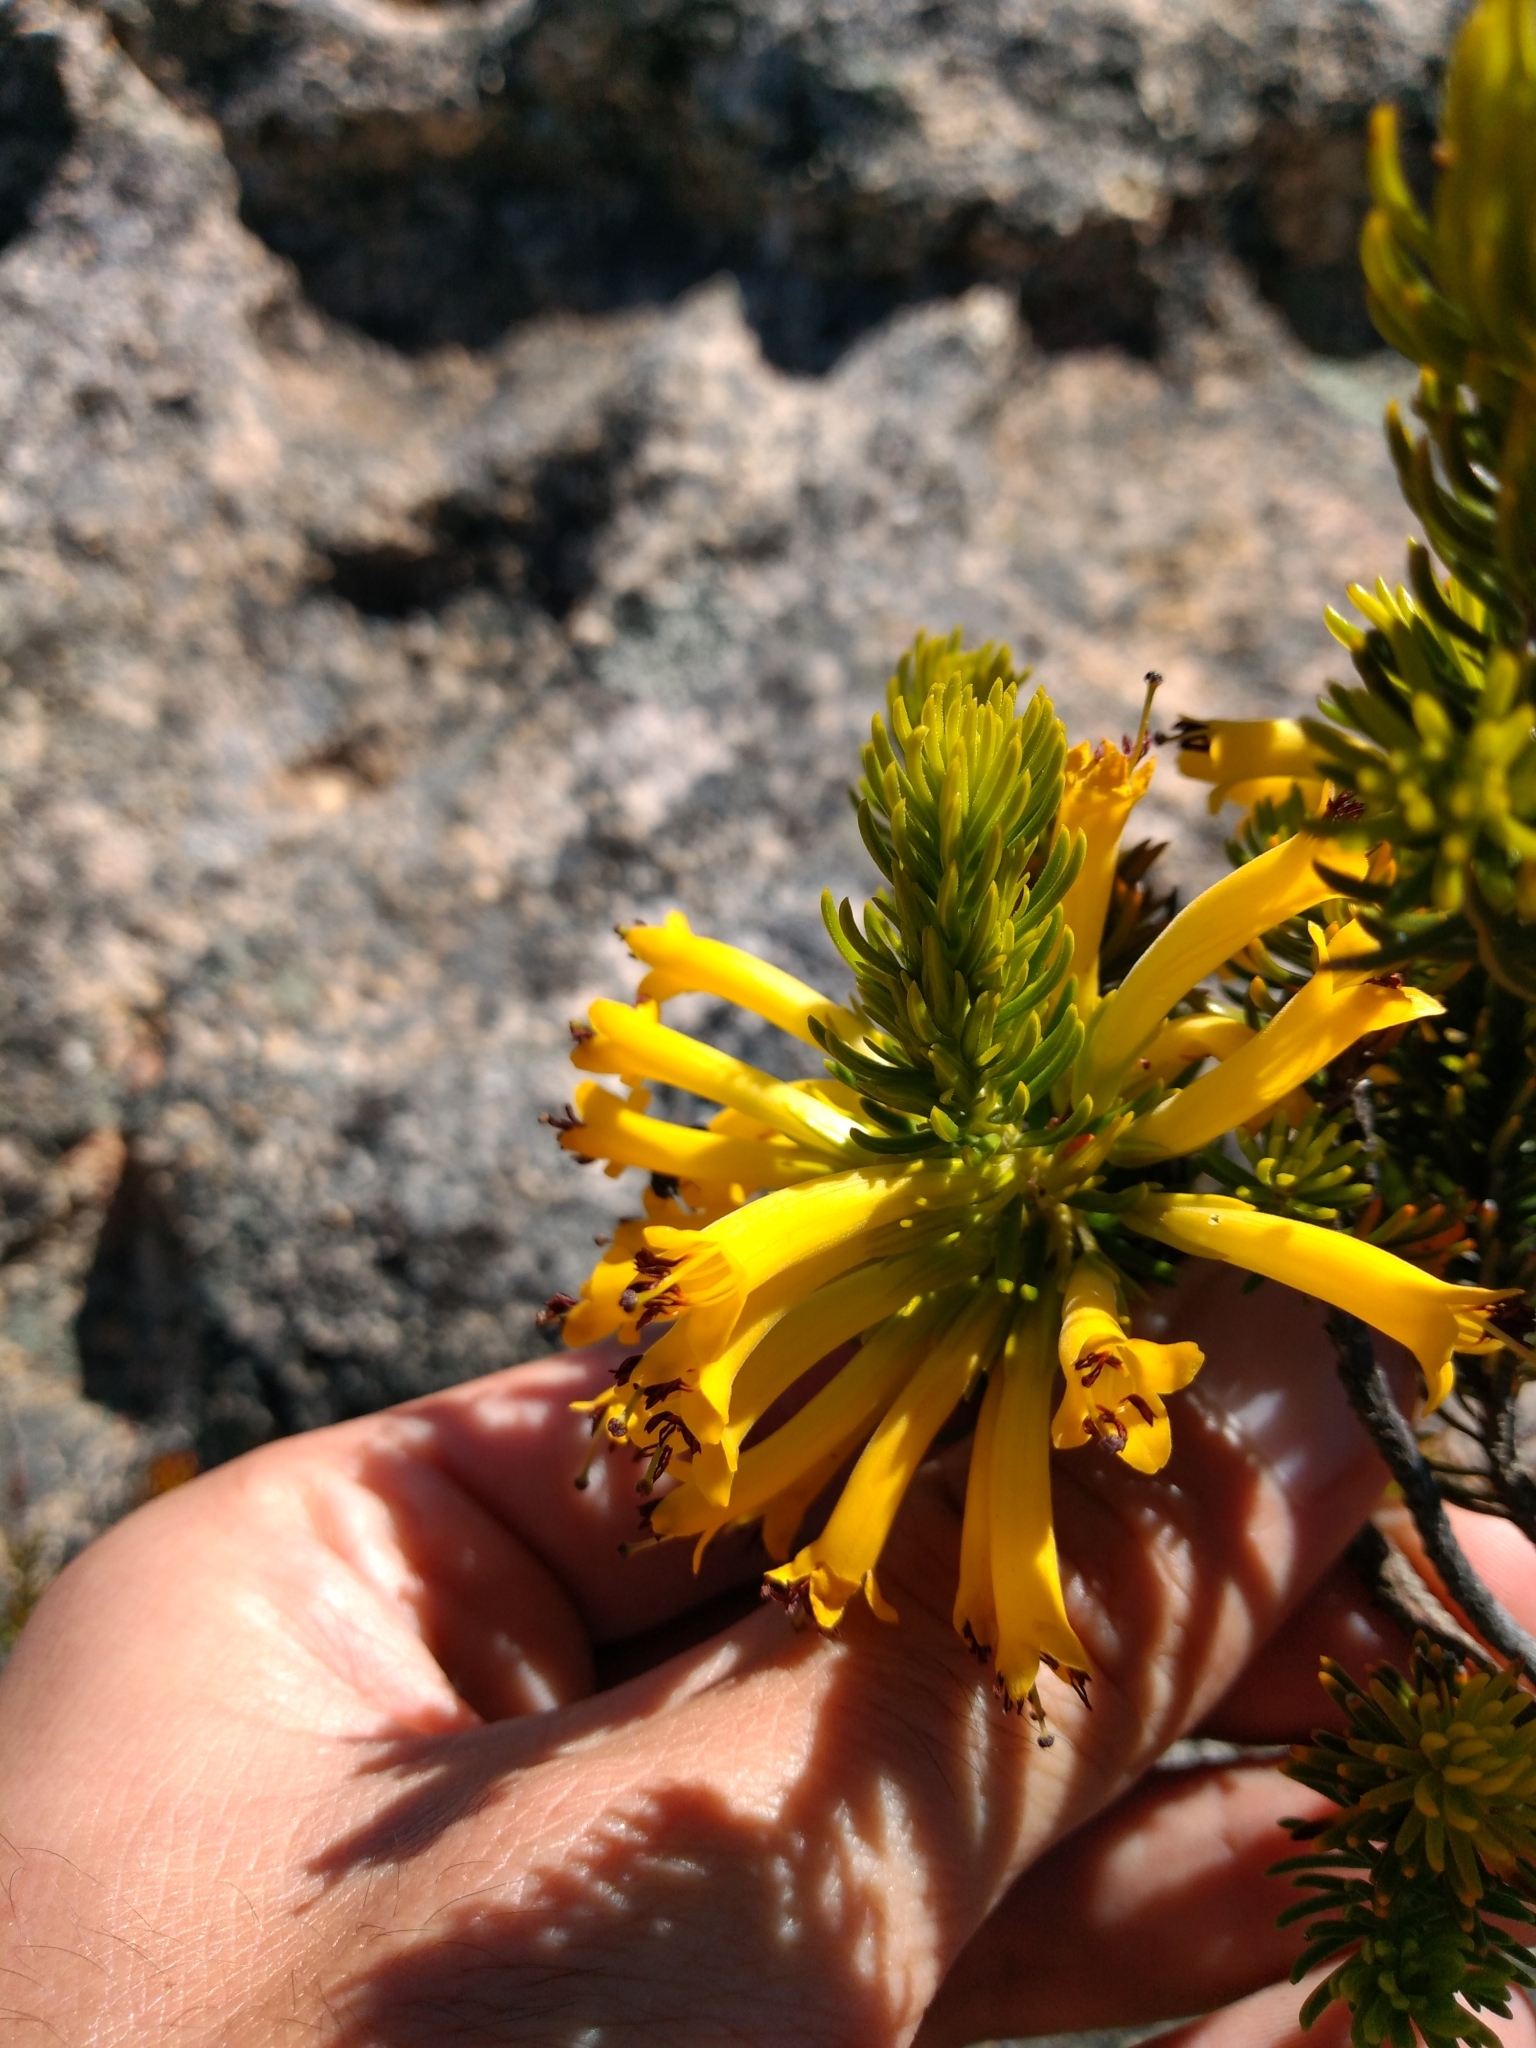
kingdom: Plantae
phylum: Tracheophyta
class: Magnoliopsida
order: Ericales
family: Ericaceae
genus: Erica
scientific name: Erica situshiemalis
